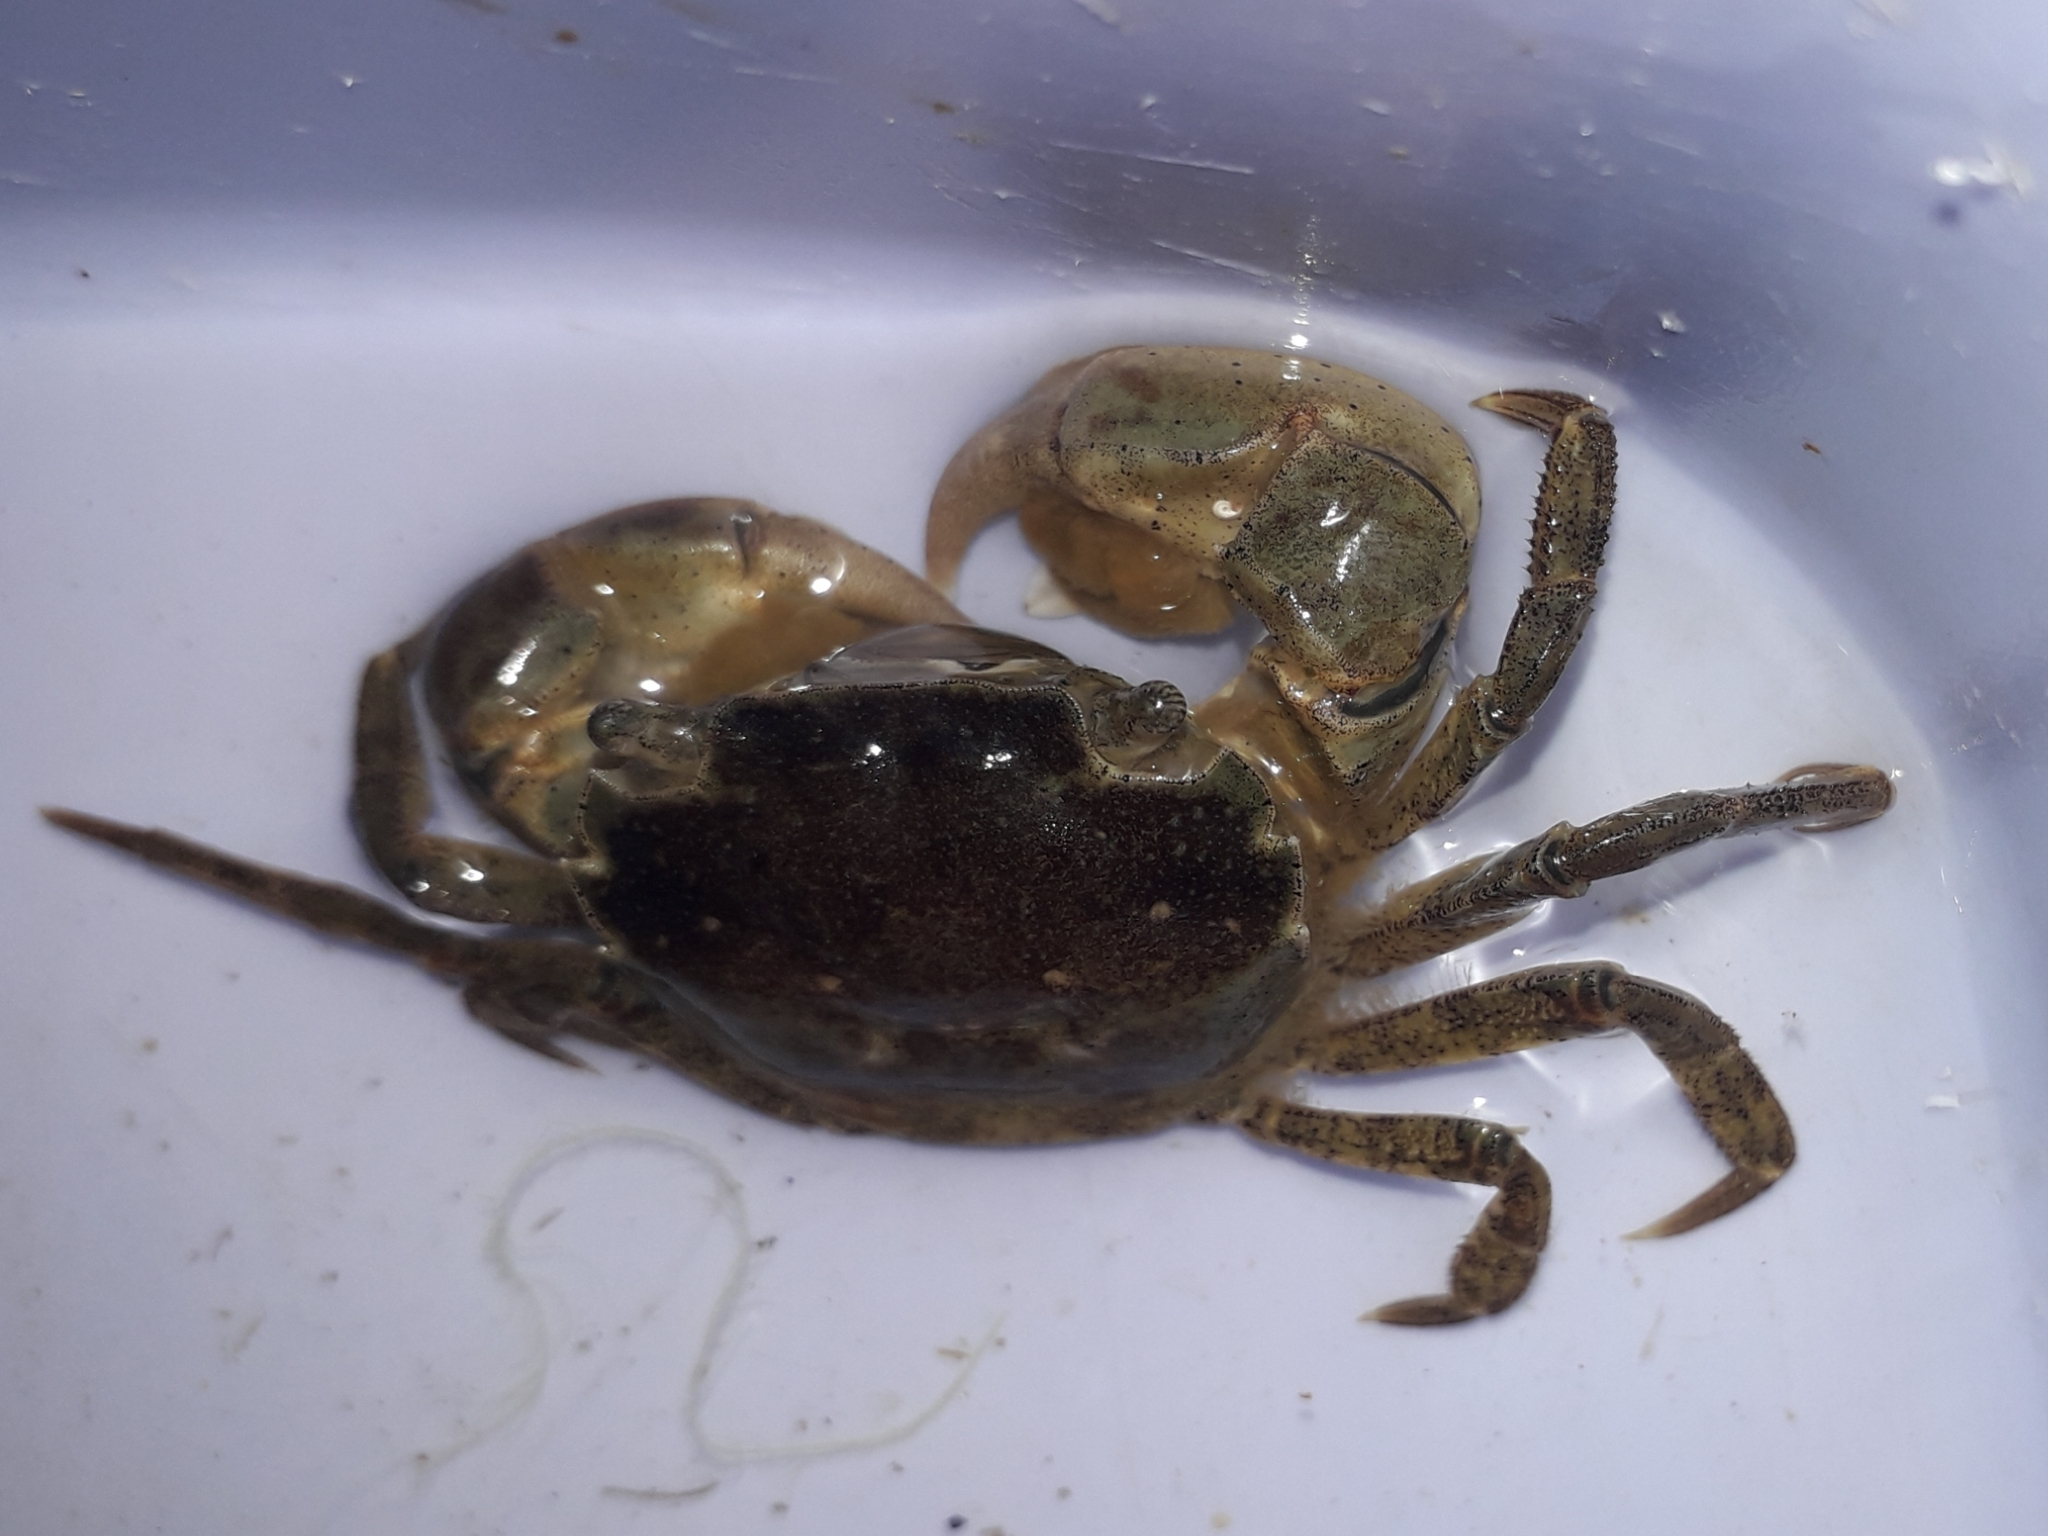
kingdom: Animalia
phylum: Arthropoda
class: Malacostraca
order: Decapoda
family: Varunidae
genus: Hemigrapsus
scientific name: Hemigrapsus takanoi
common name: Asian brush crab
